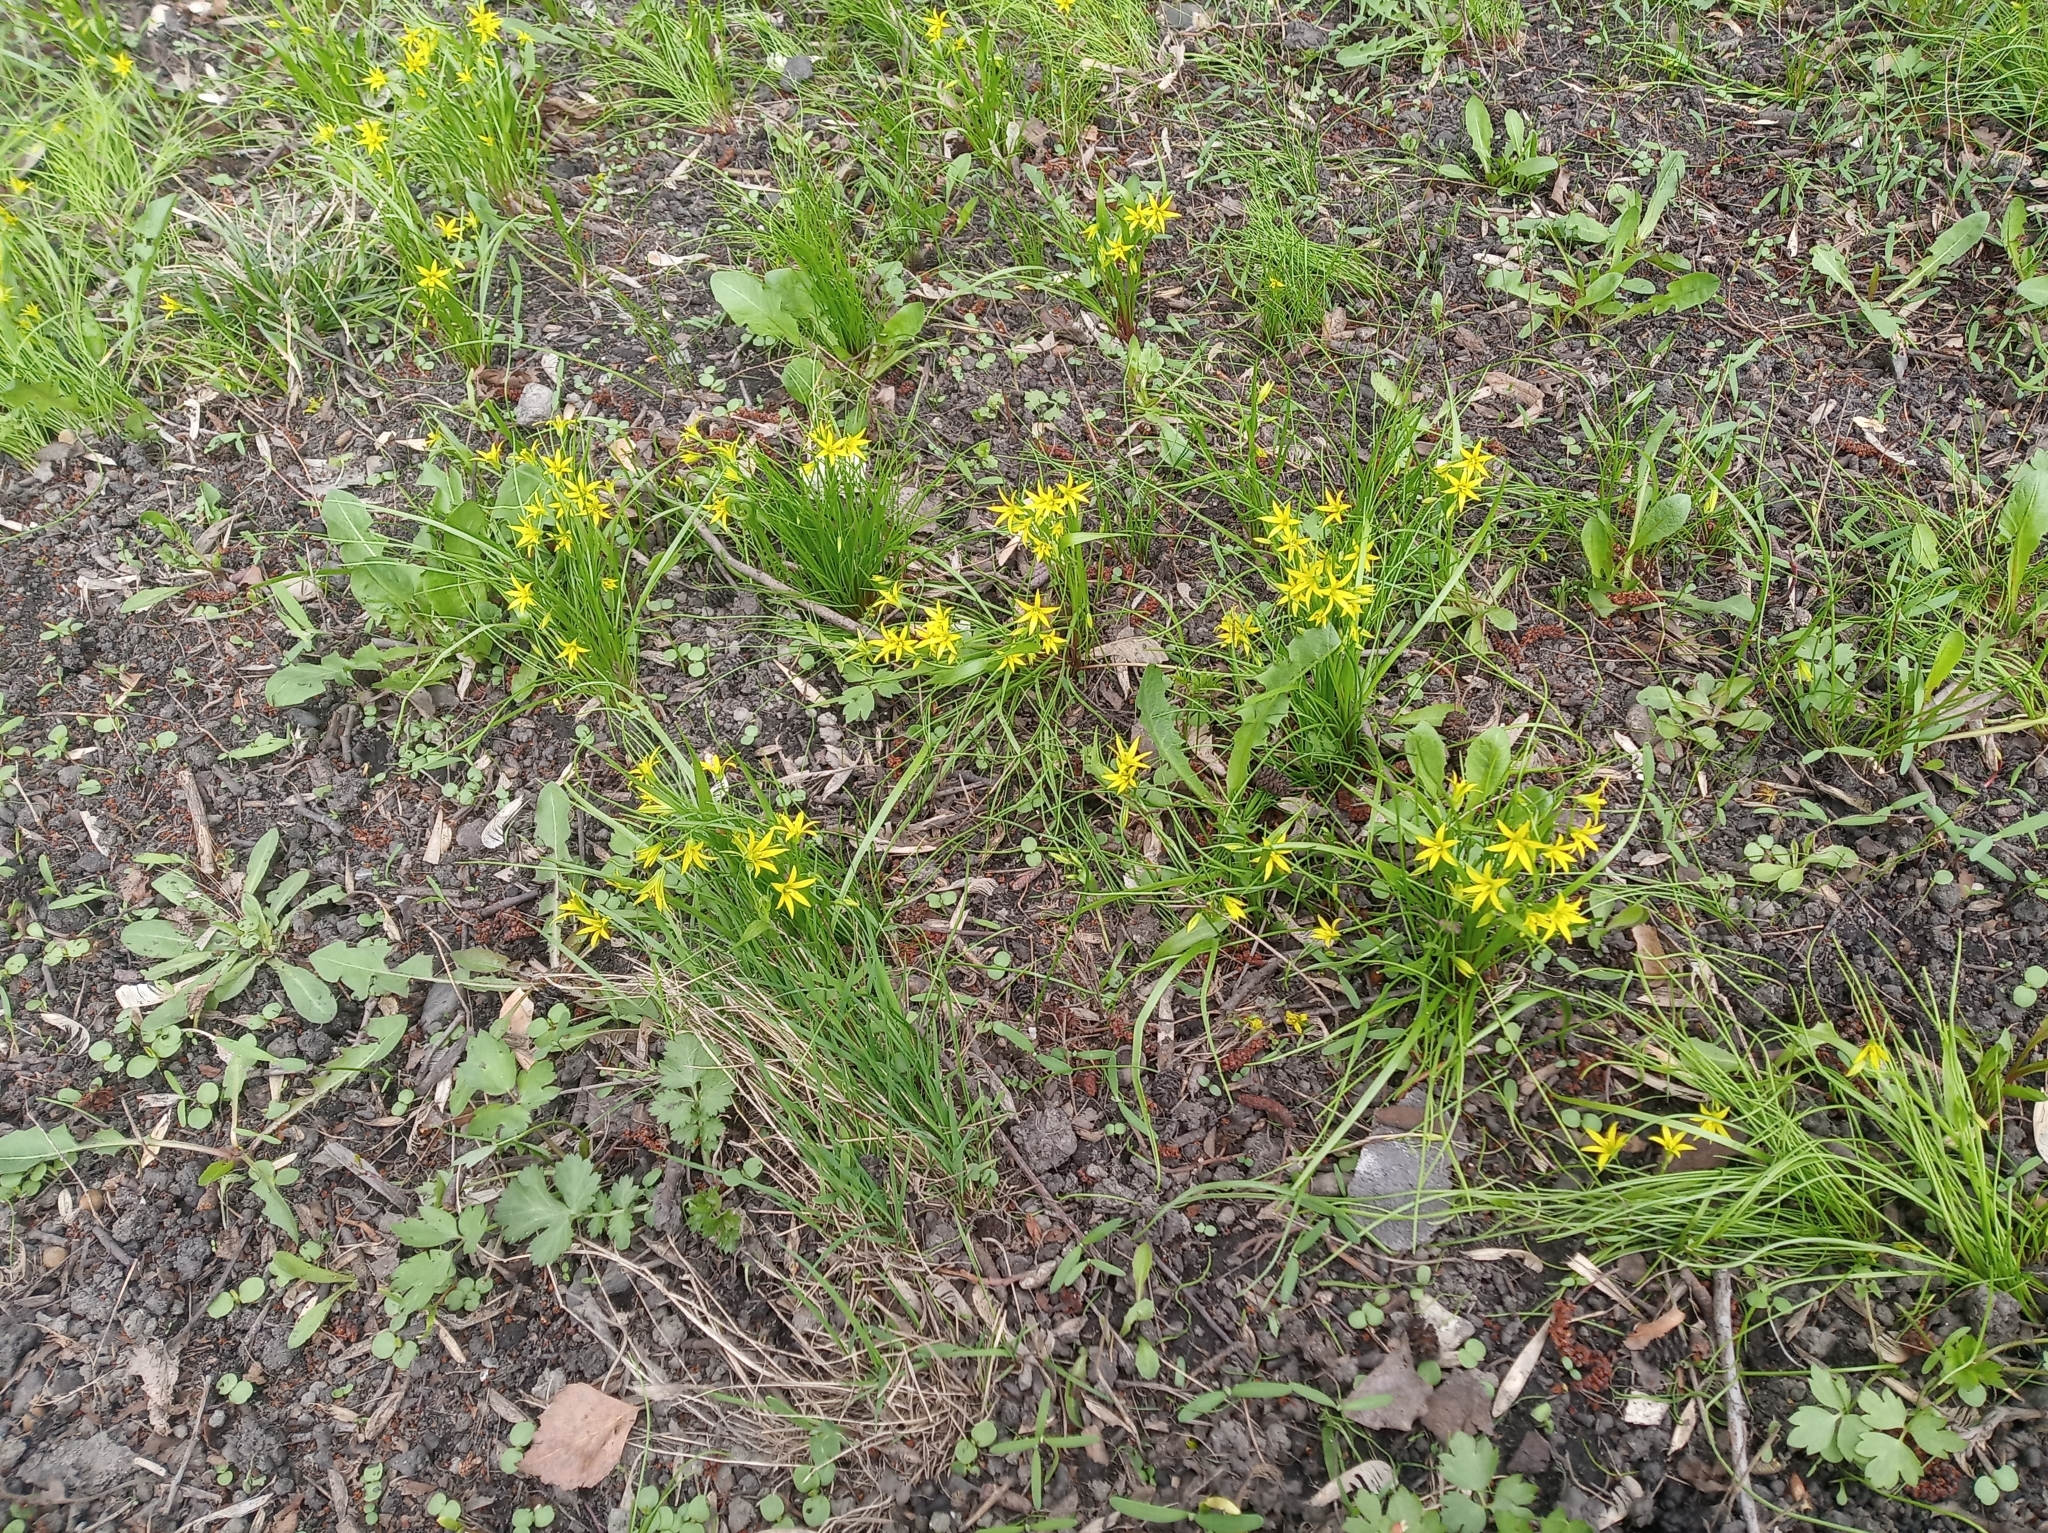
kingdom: Plantae
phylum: Tracheophyta
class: Liliopsida
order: Liliales
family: Liliaceae
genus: Gagea
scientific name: Gagea minima
